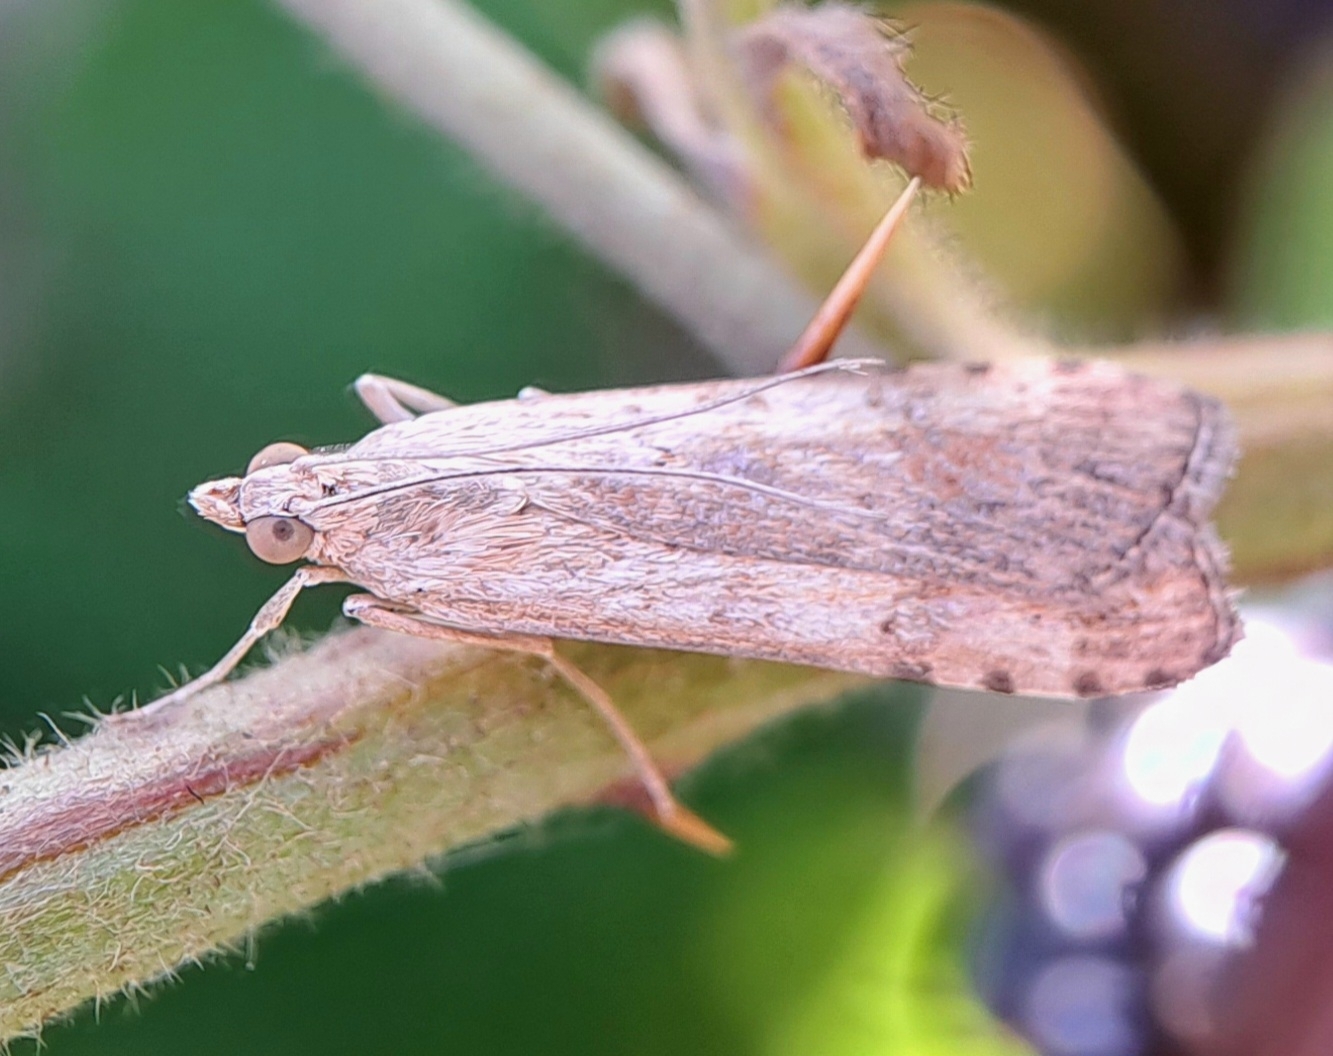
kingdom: Animalia
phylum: Arthropoda
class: Insecta
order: Lepidoptera
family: Crambidae
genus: Nomophila
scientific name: Nomophila noctuella
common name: Rush veneer
